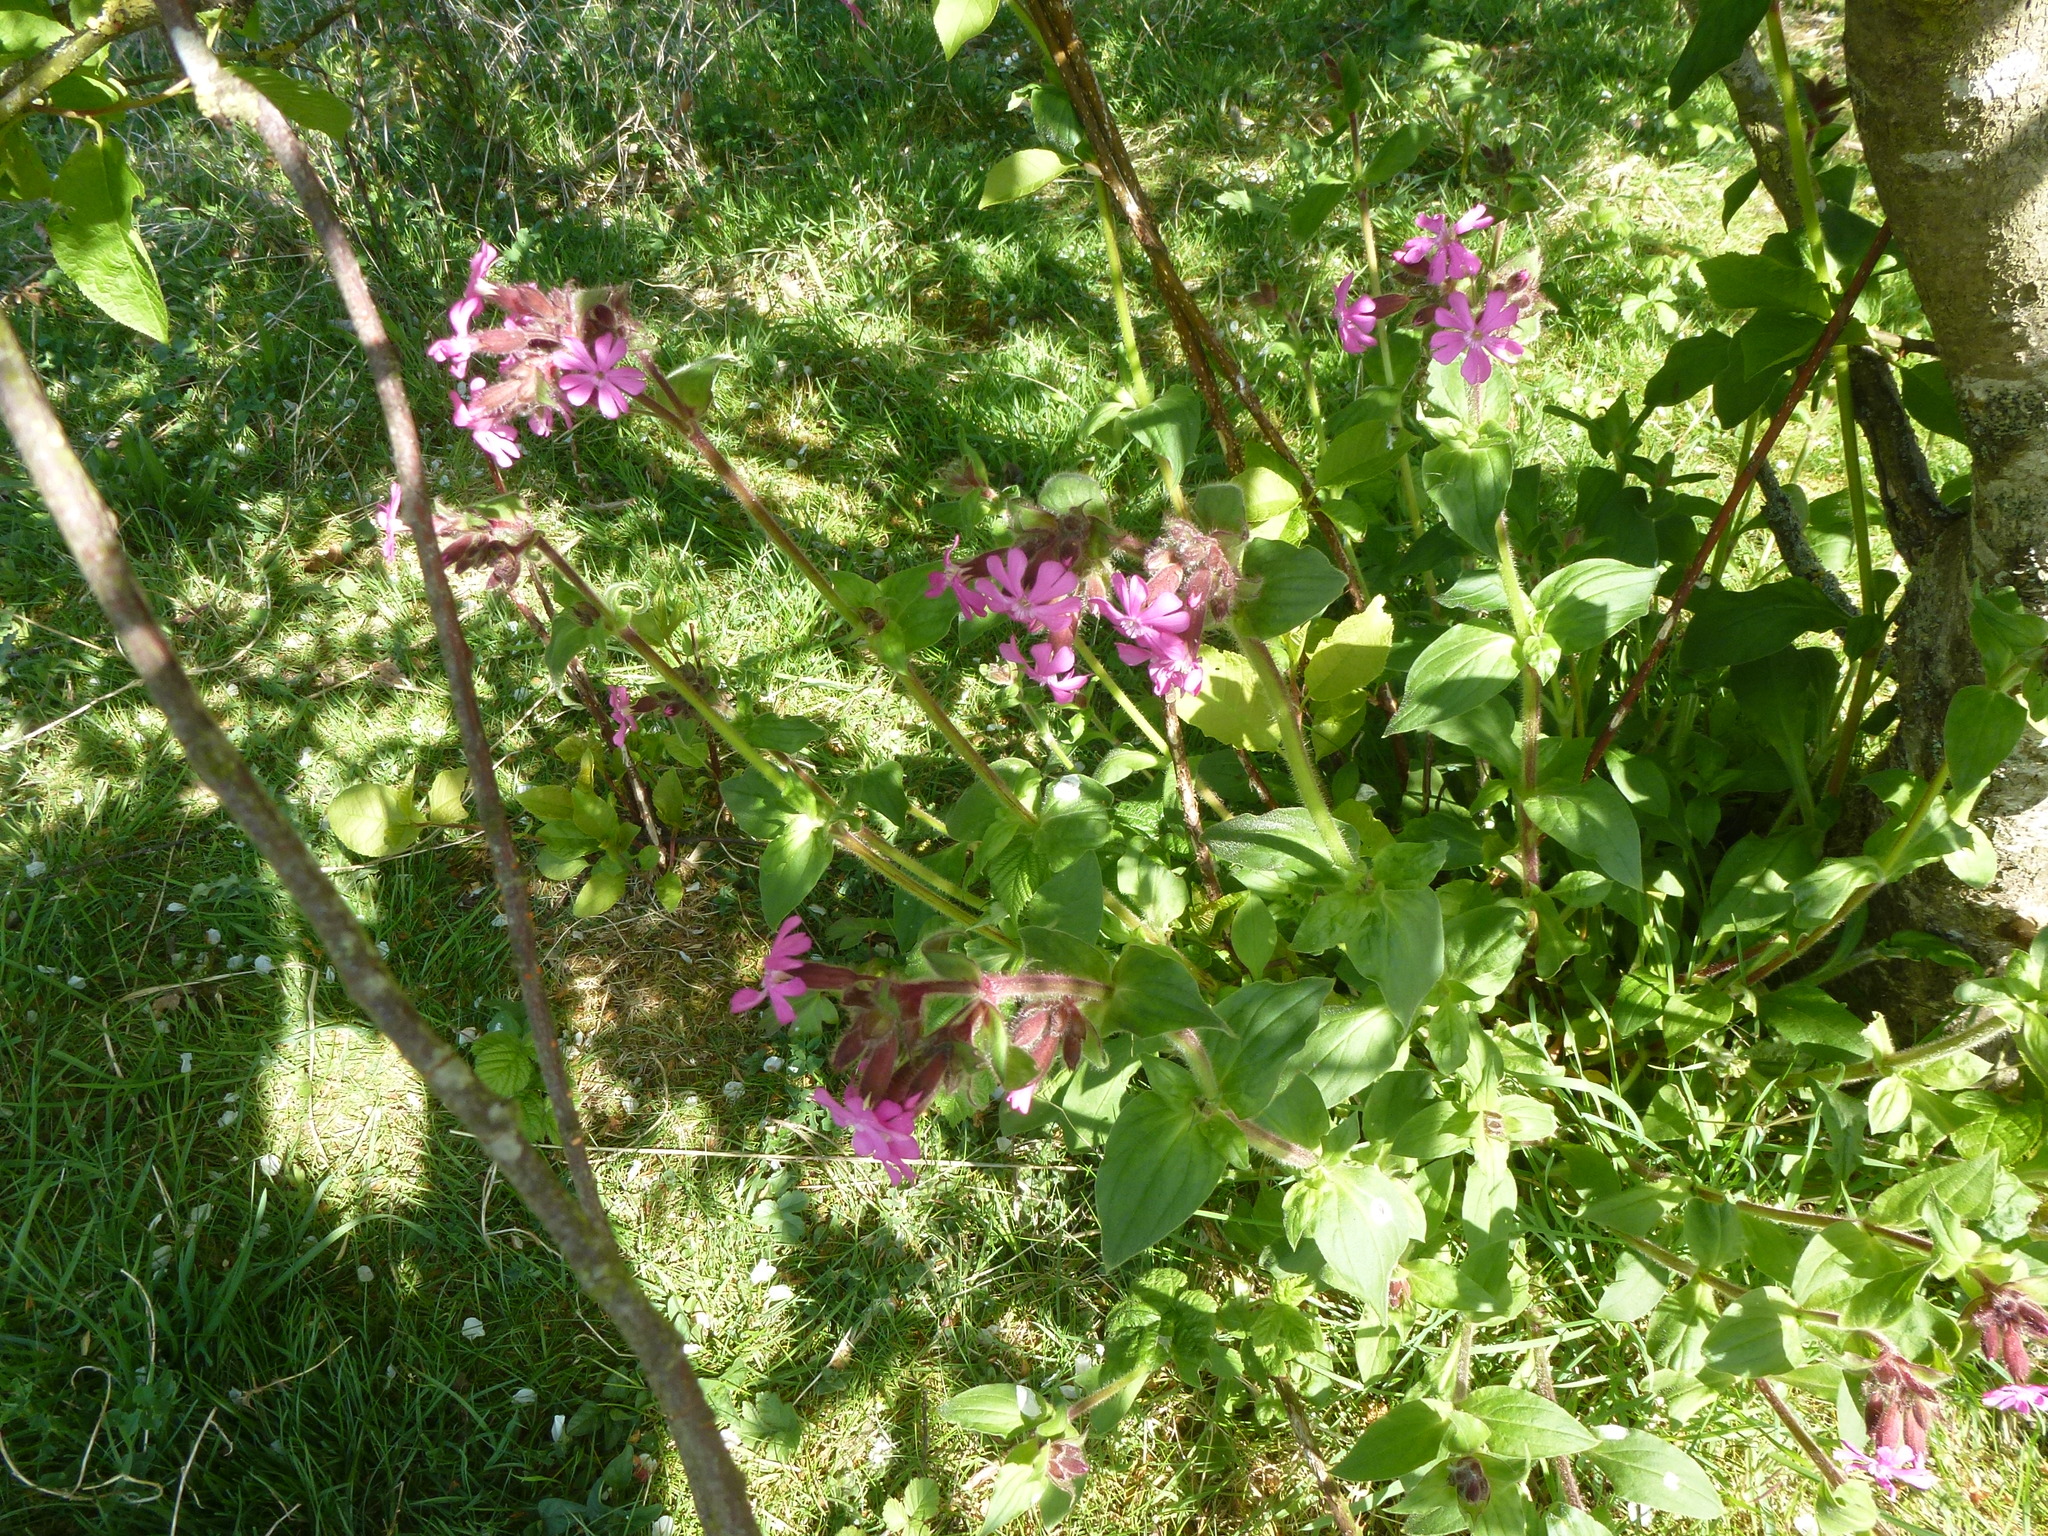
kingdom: Plantae
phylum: Tracheophyta
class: Magnoliopsida
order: Caryophyllales
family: Caryophyllaceae
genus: Silene
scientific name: Silene dioica
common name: Red campion
